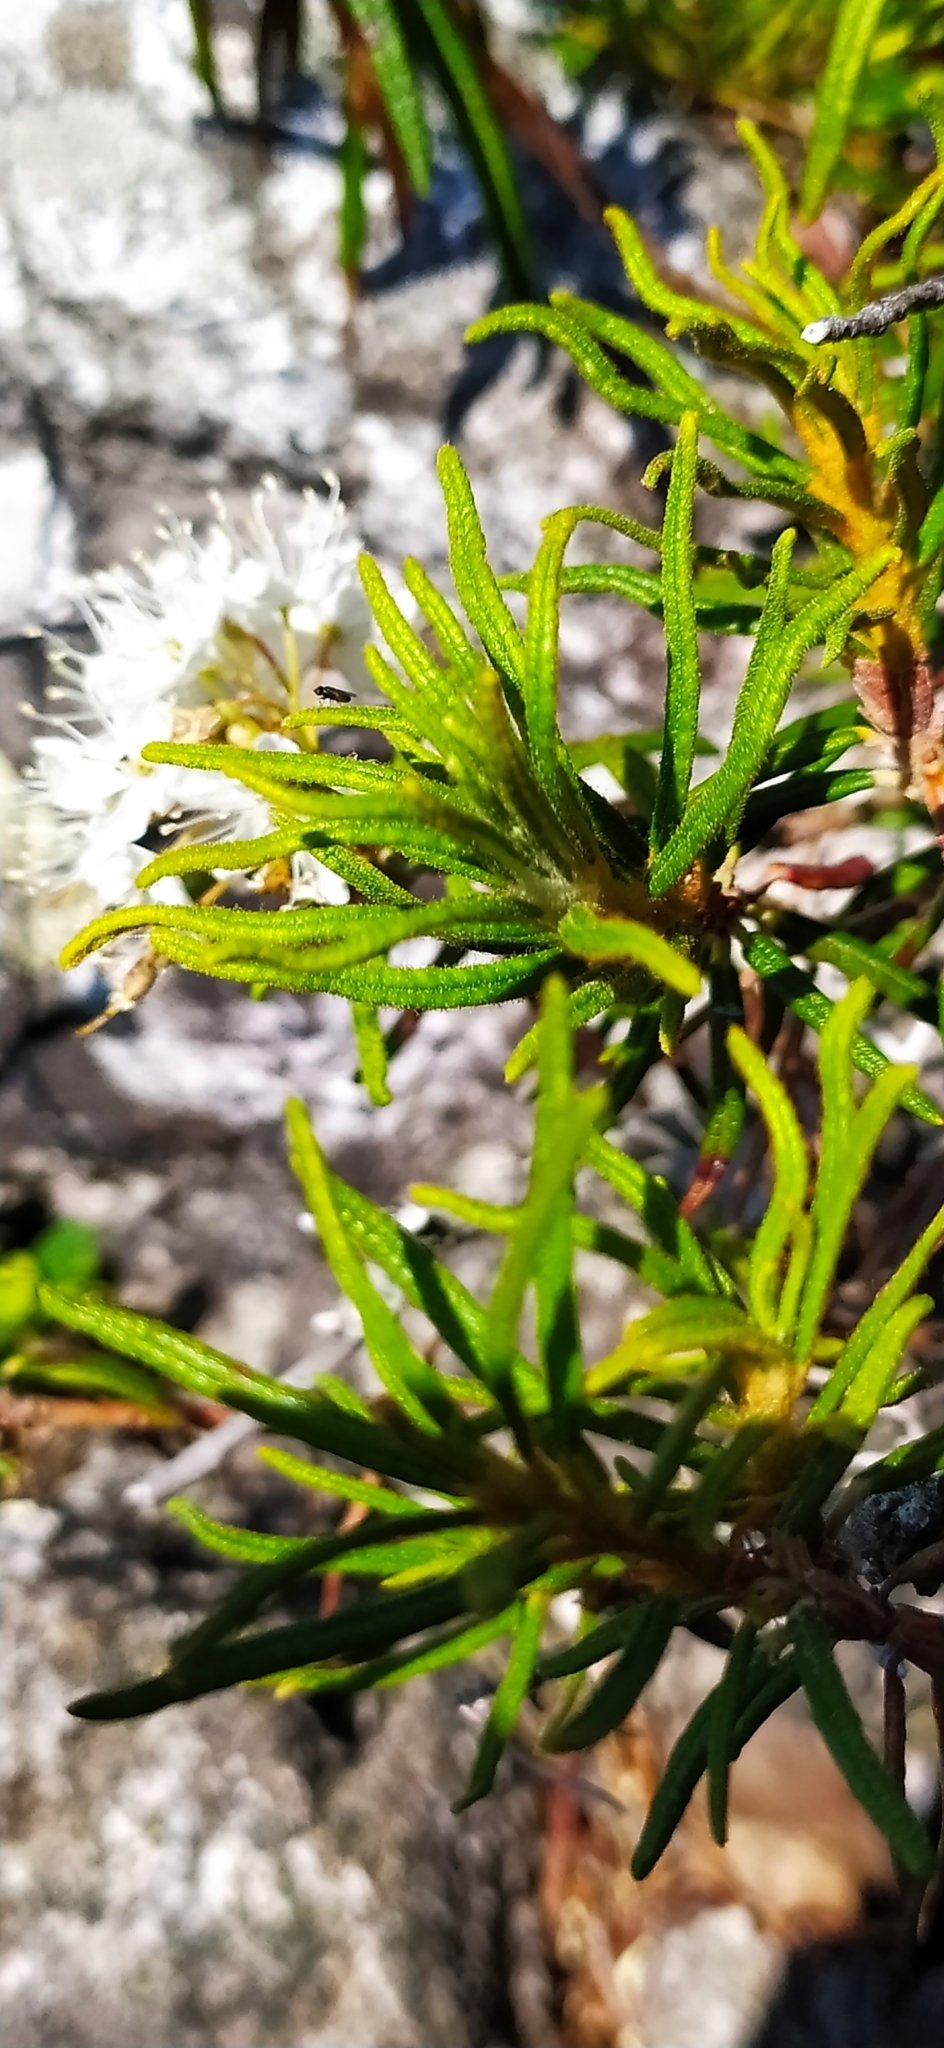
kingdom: Plantae
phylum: Tracheophyta
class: Magnoliopsida
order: Ericales
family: Ericaceae
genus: Rhododendron
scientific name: Rhododendron tomentosum
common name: Marsh labrador tea
